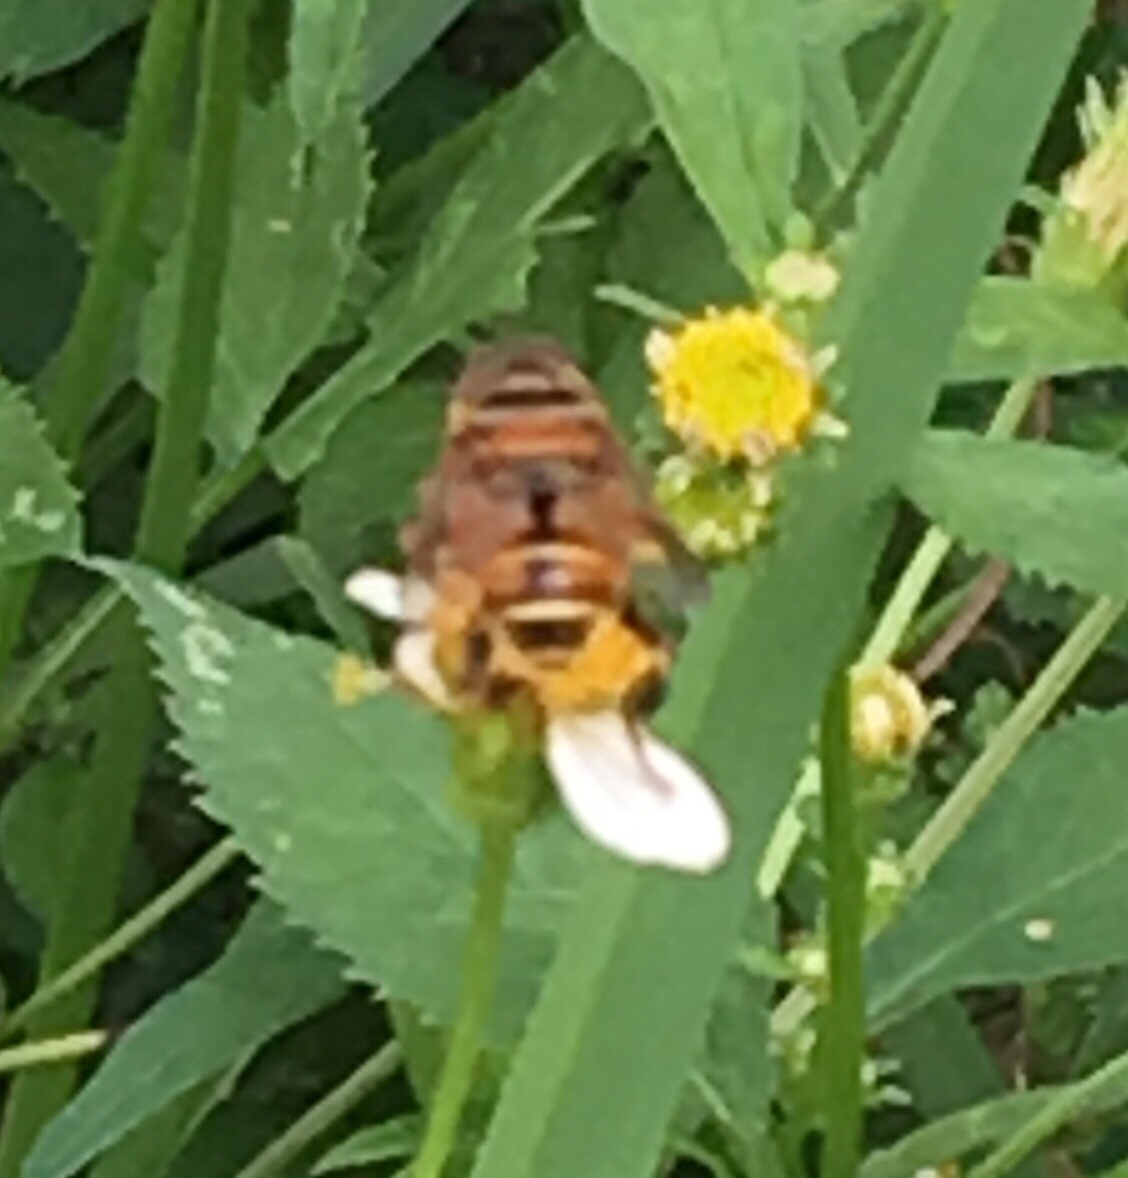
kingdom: Animalia
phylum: Arthropoda
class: Insecta
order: Diptera
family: Syrphidae
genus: Palpada
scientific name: Palpada vinetorum
